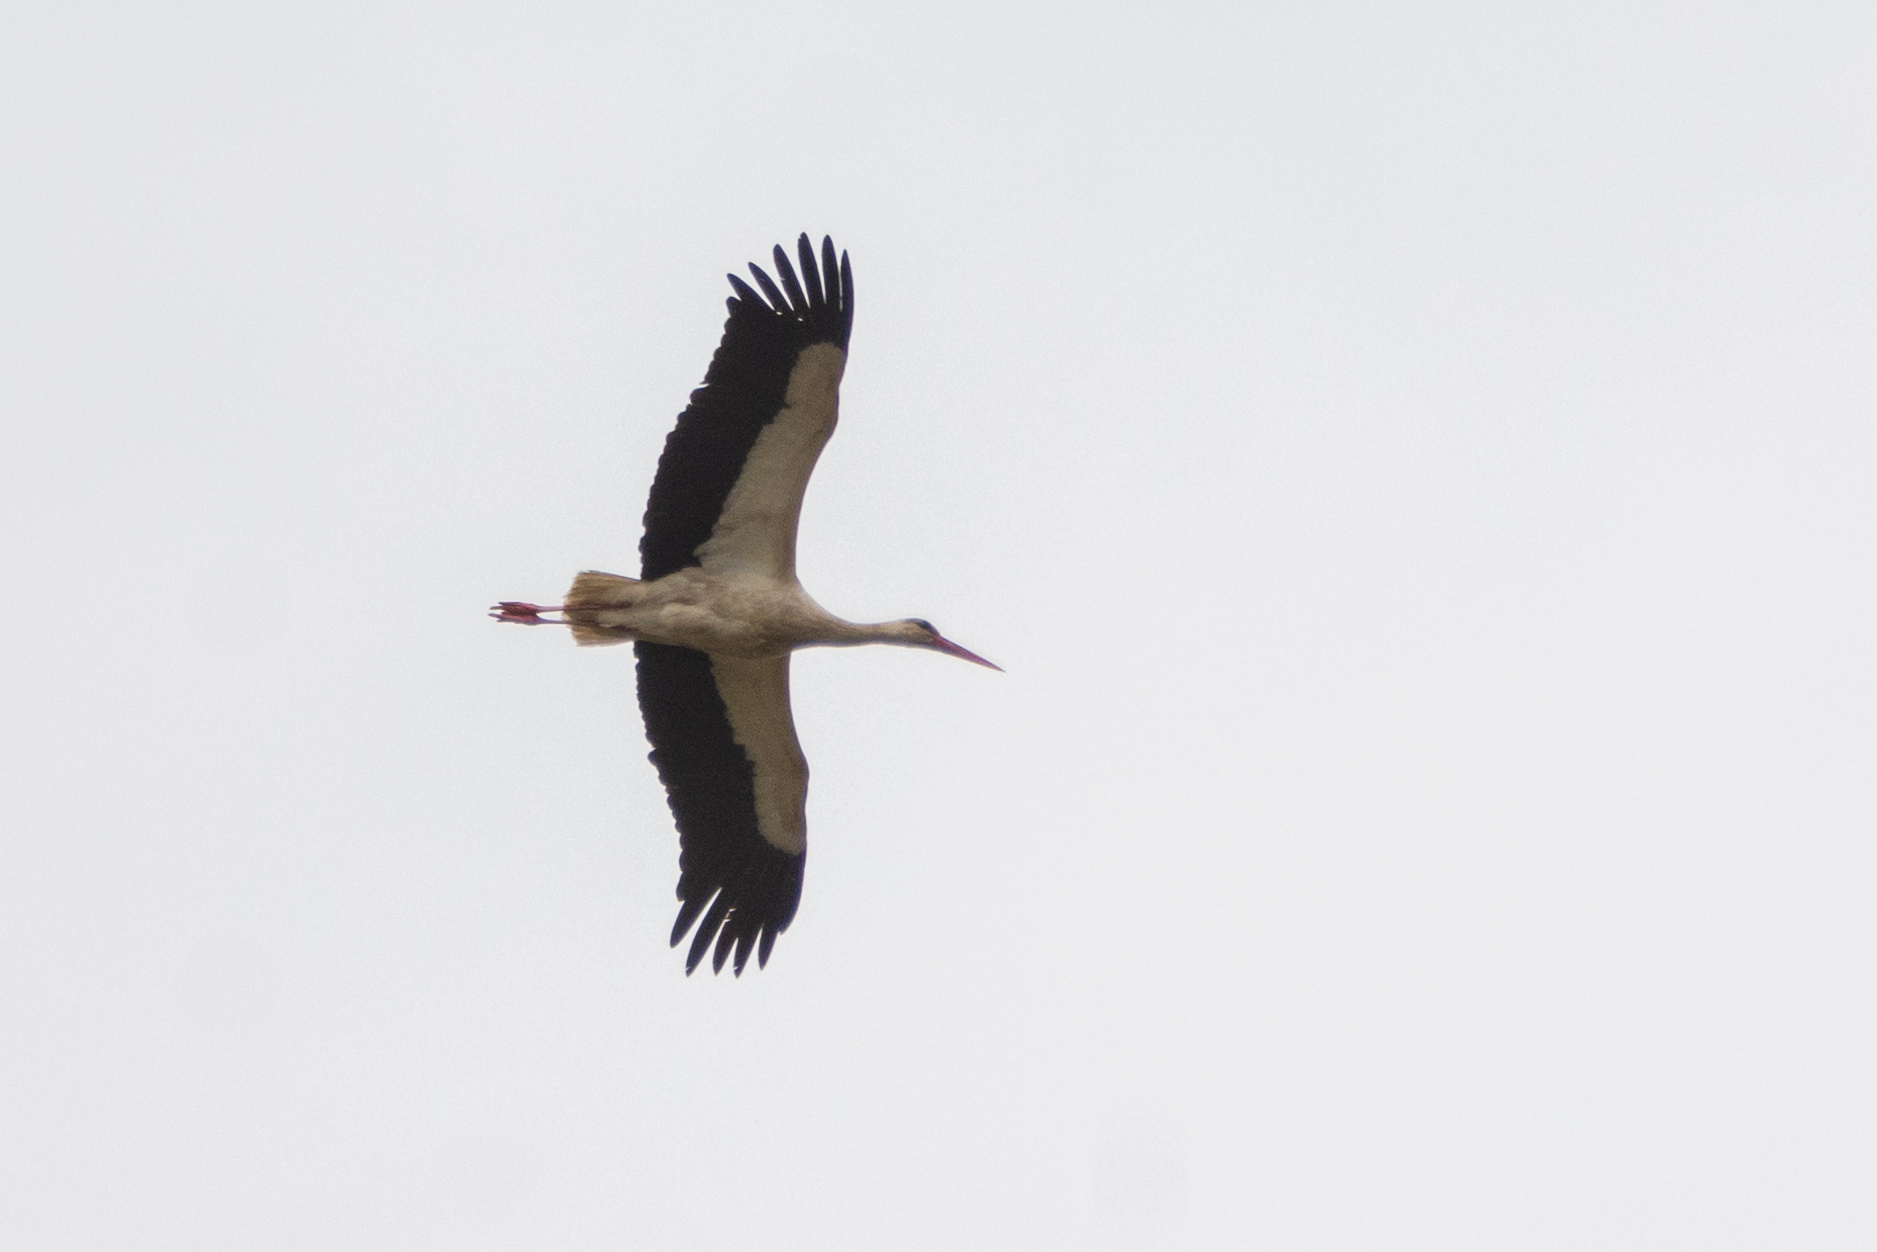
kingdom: Animalia
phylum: Chordata
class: Aves
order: Ciconiiformes
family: Ciconiidae
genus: Ciconia
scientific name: Ciconia ciconia
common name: White stork
